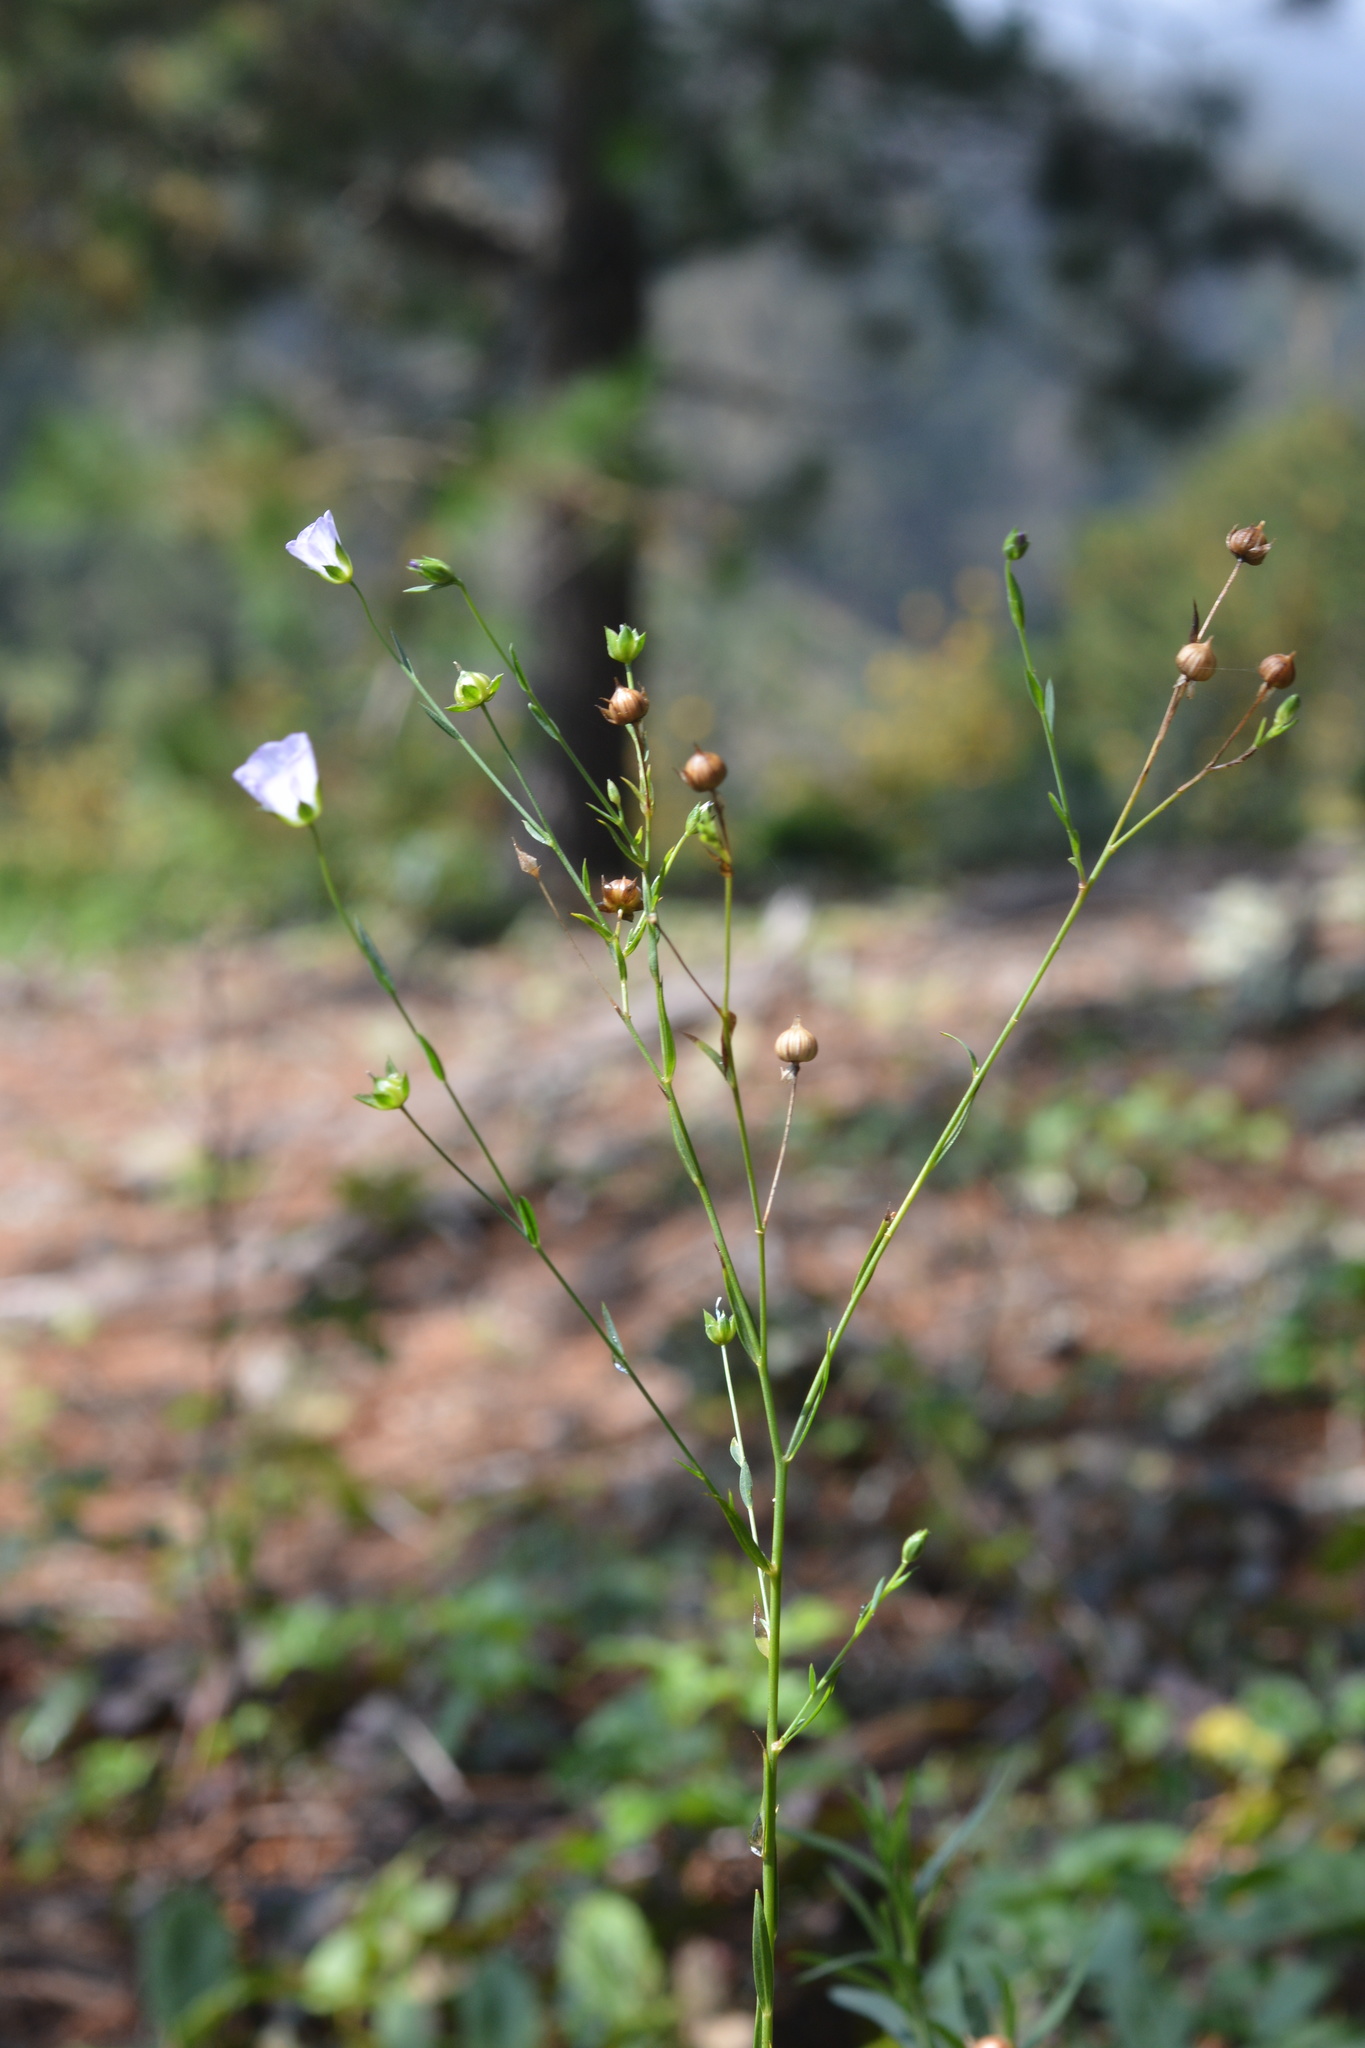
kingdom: Plantae
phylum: Tracheophyta
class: Magnoliopsida
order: Malpighiales
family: Linaceae
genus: Linum
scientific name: Linum bienne
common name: Pale flax
